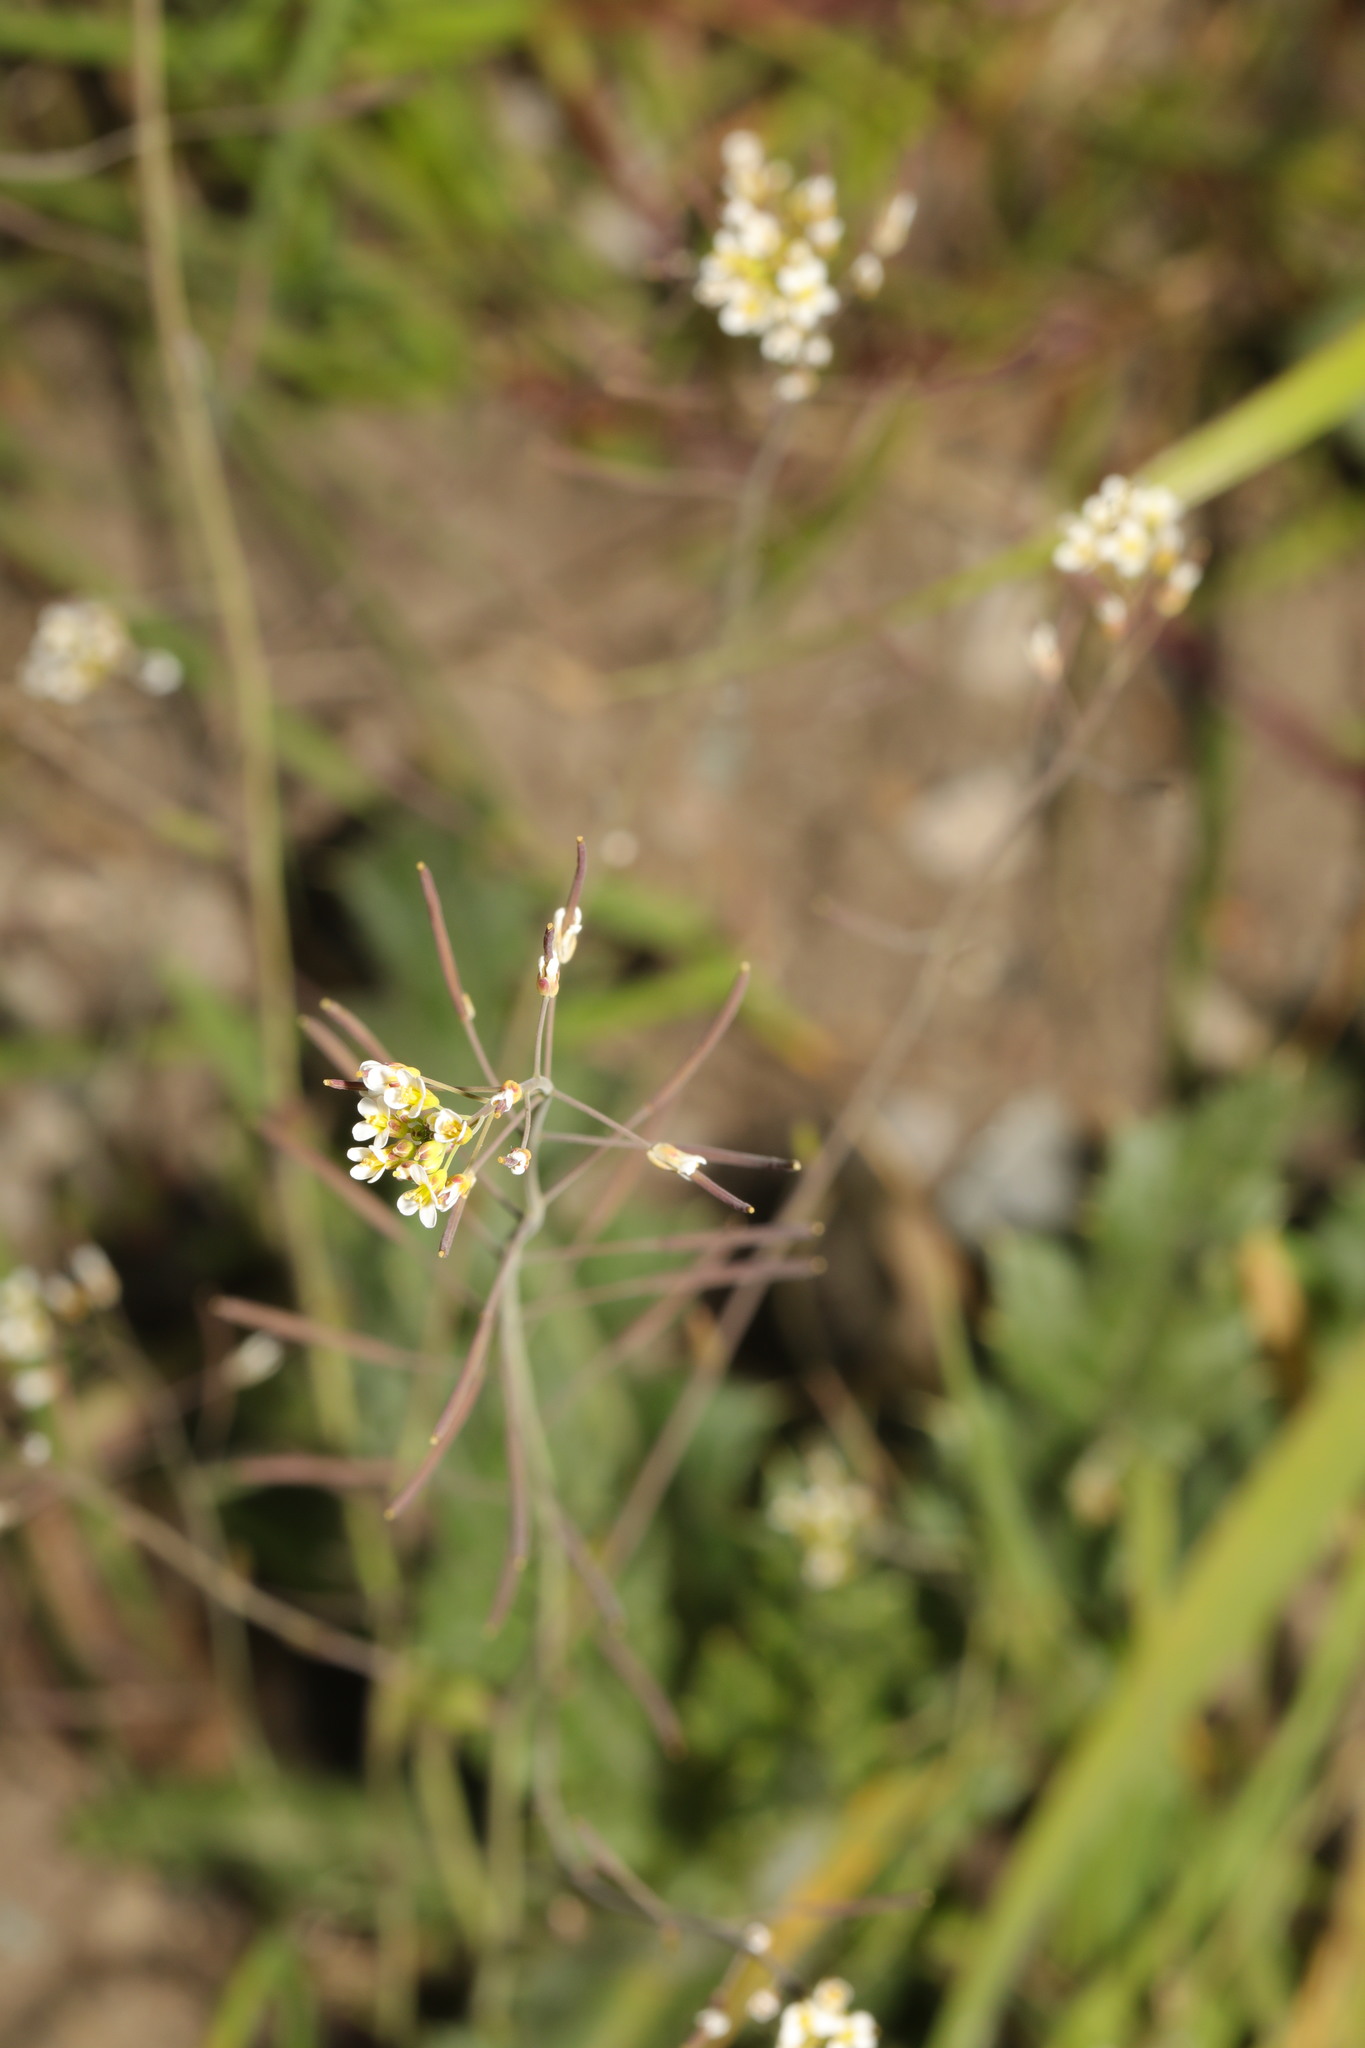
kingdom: Plantae
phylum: Tracheophyta
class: Magnoliopsida
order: Brassicales
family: Brassicaceae
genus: Arabidopsis
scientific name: Arabidopsis thaliana
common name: Thale cress
